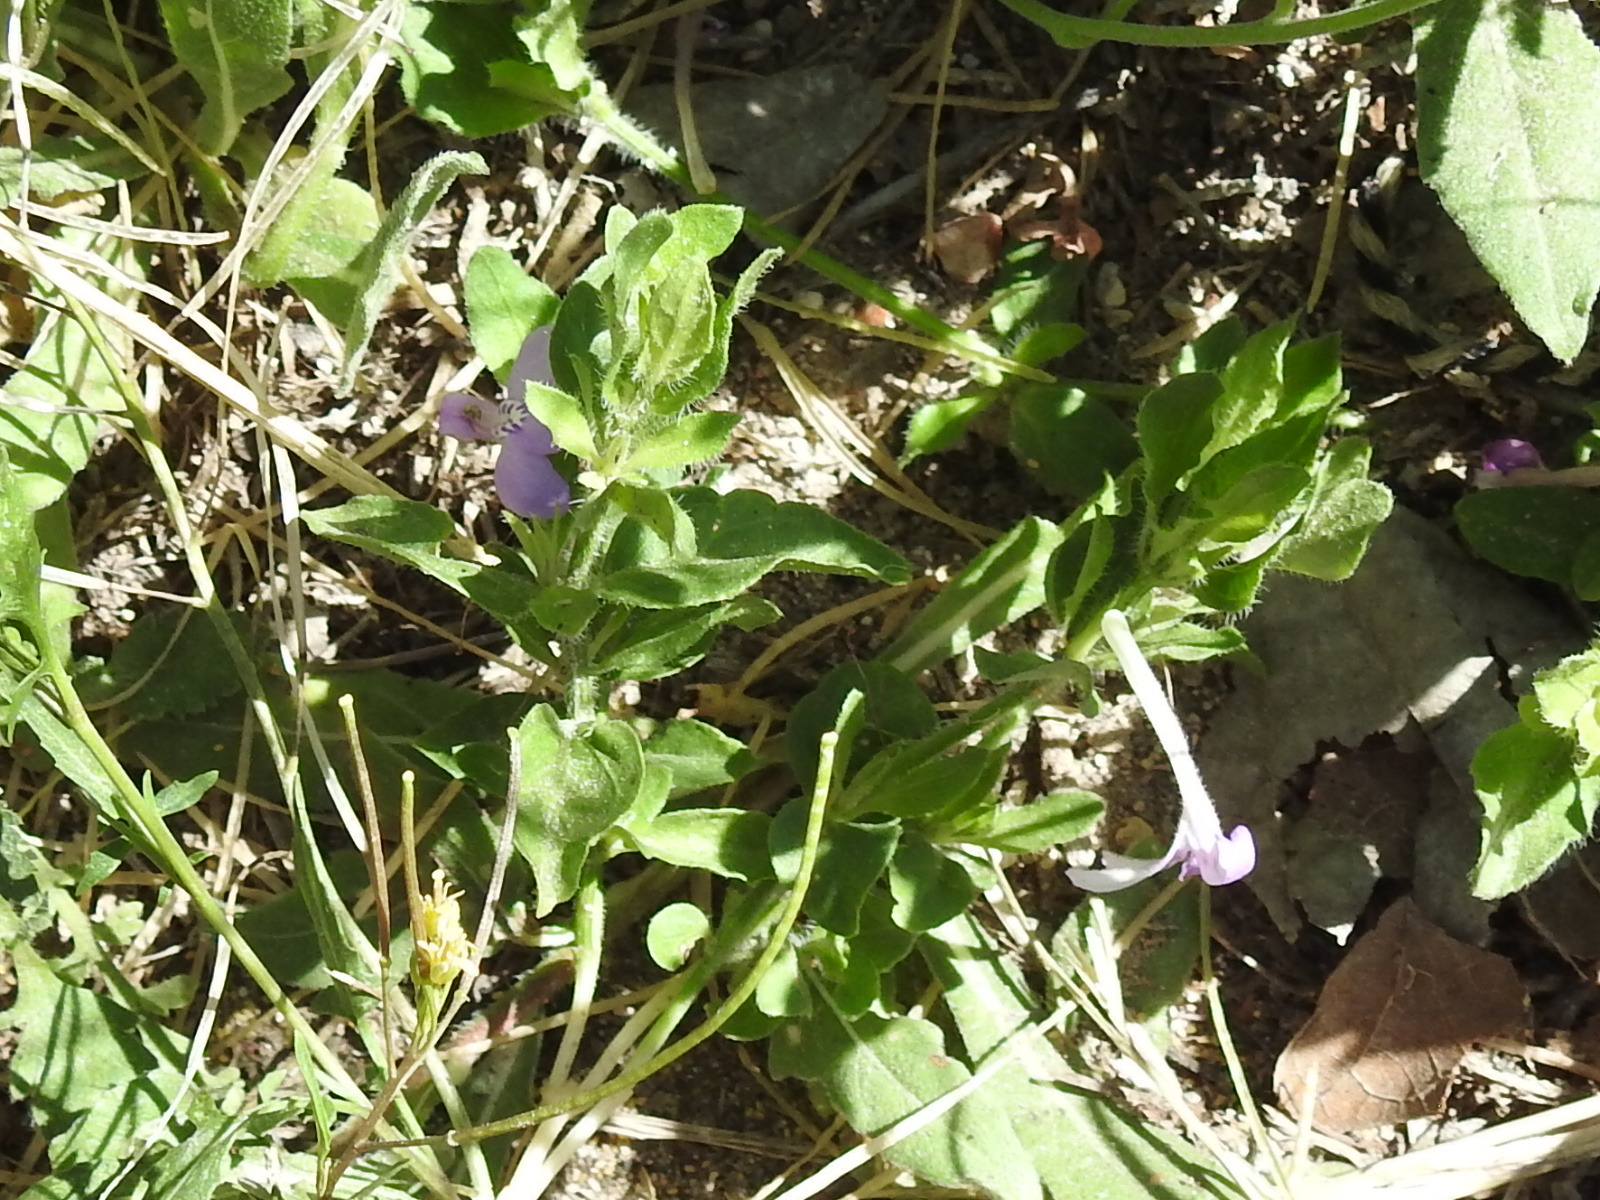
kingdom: Plantae
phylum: Tracheophyta
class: Magnoliopsida
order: Lamiales
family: Acanthaceae
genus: Justicia
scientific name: Justicia pilosella
